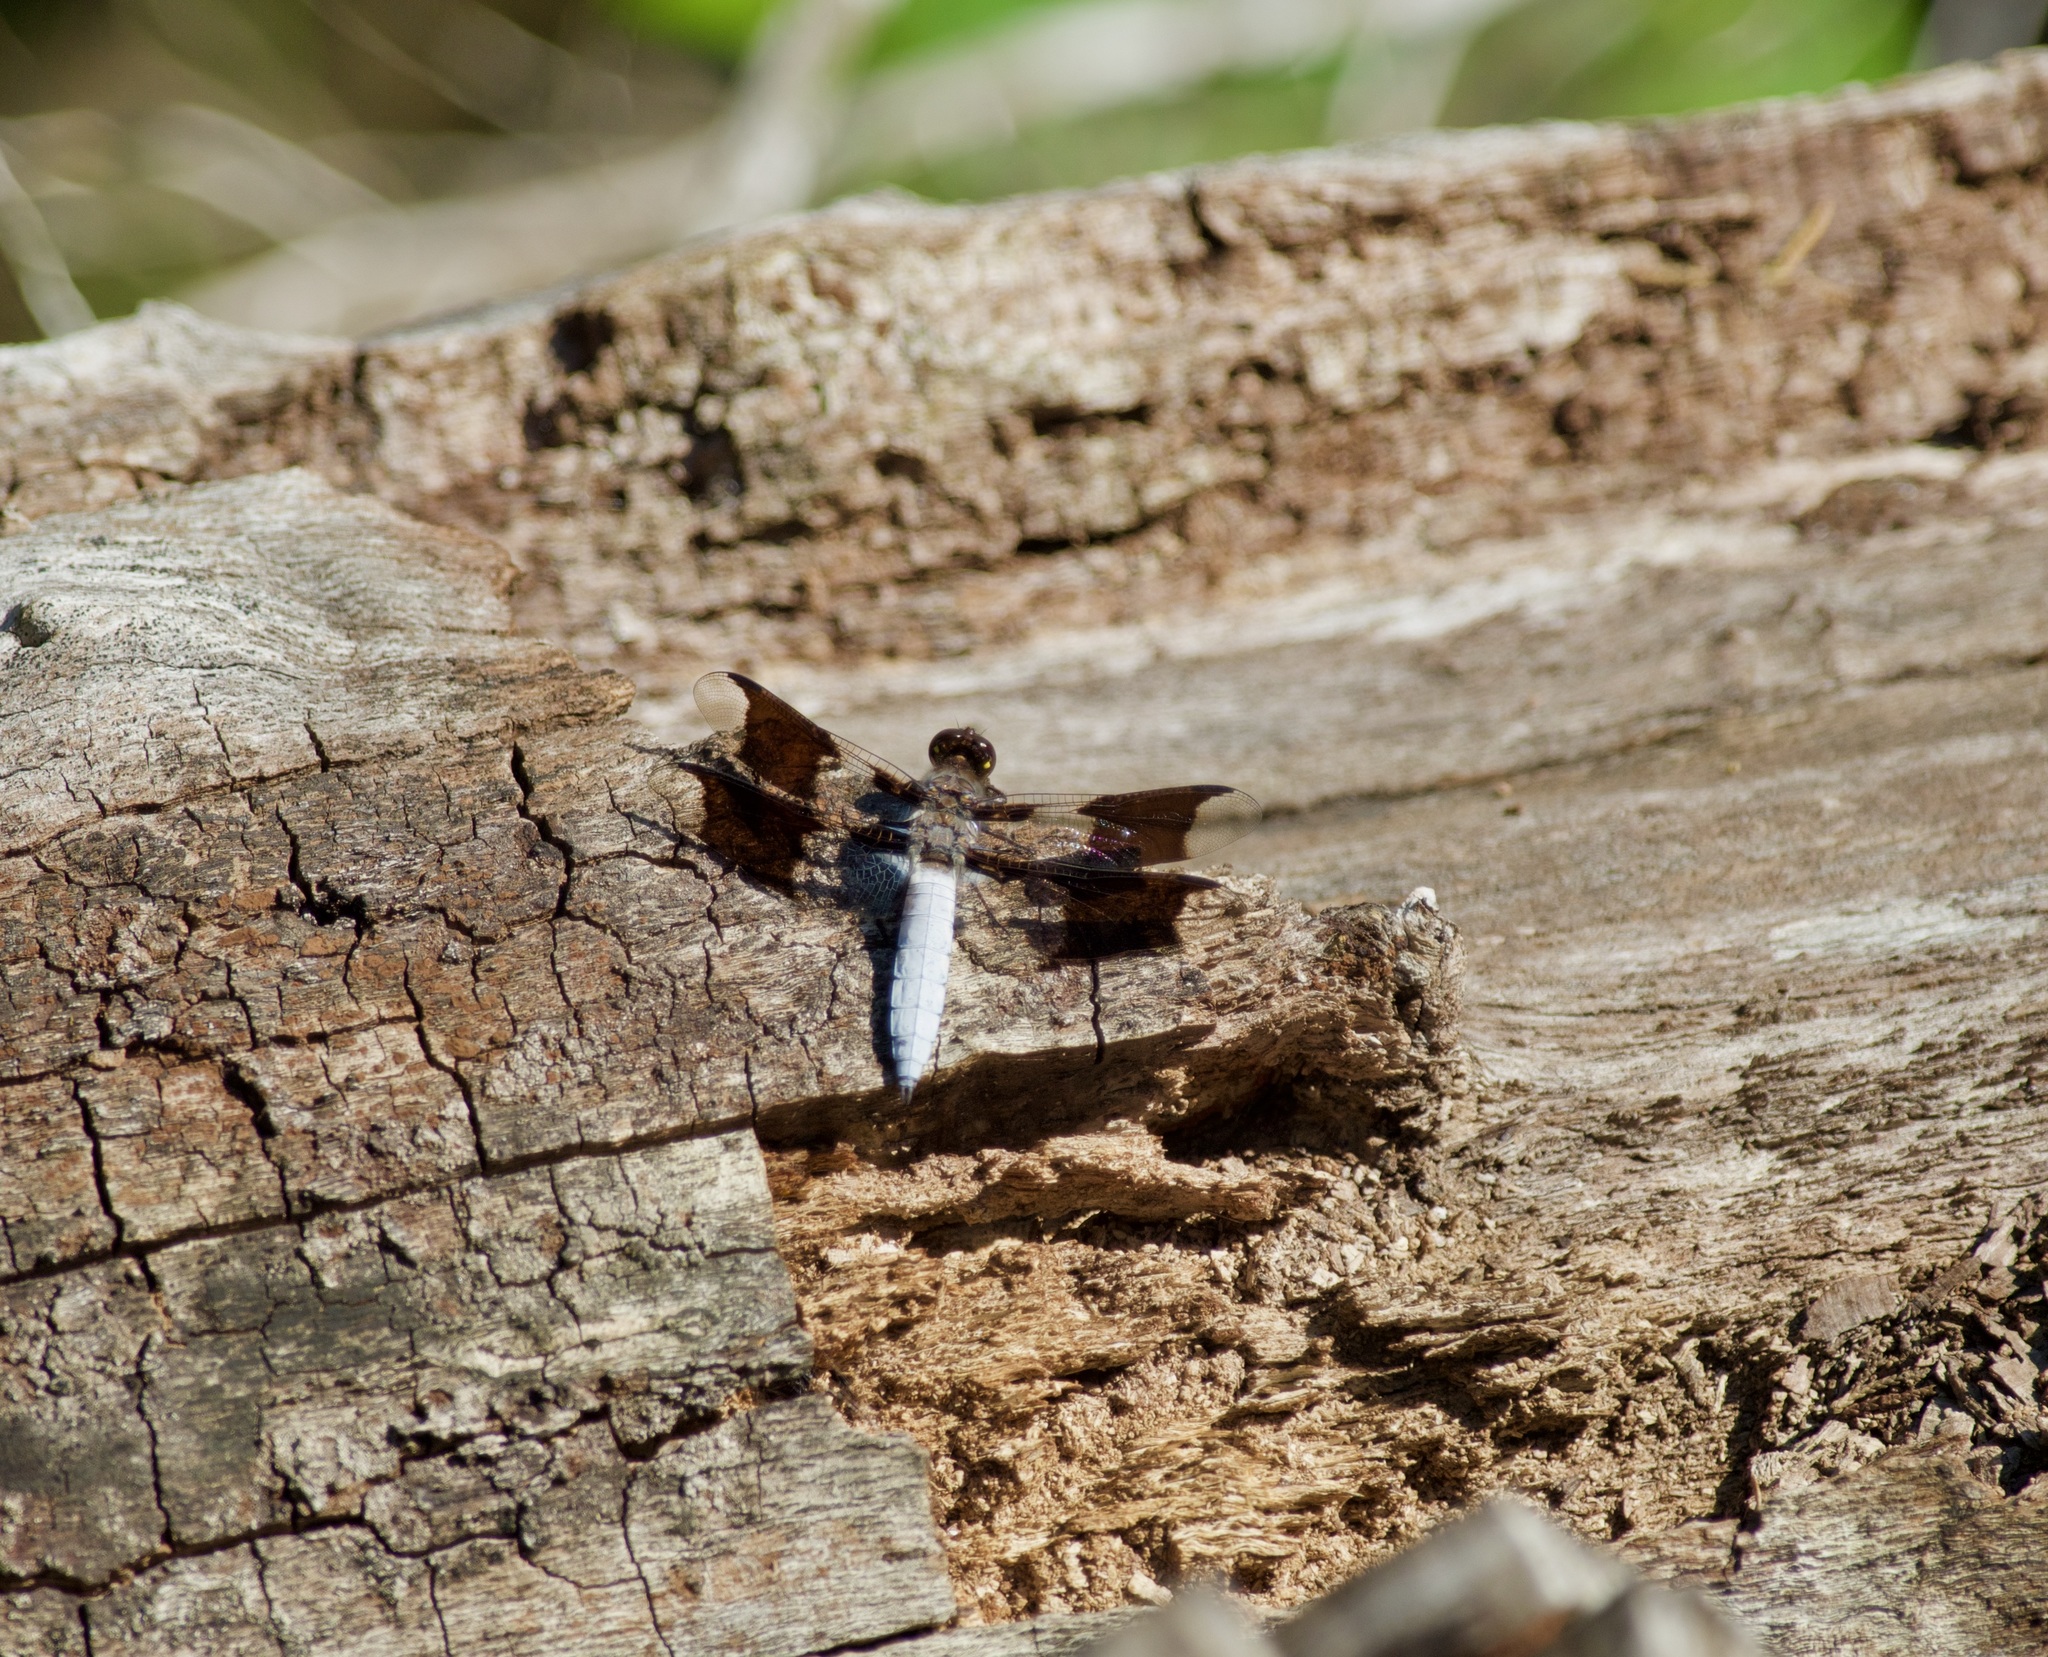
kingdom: Animalia
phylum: Arthropoda
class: Insecta
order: Odonata
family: Libellulidae
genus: Plathemis
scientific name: Plathemis lydia
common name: Common whitetail
